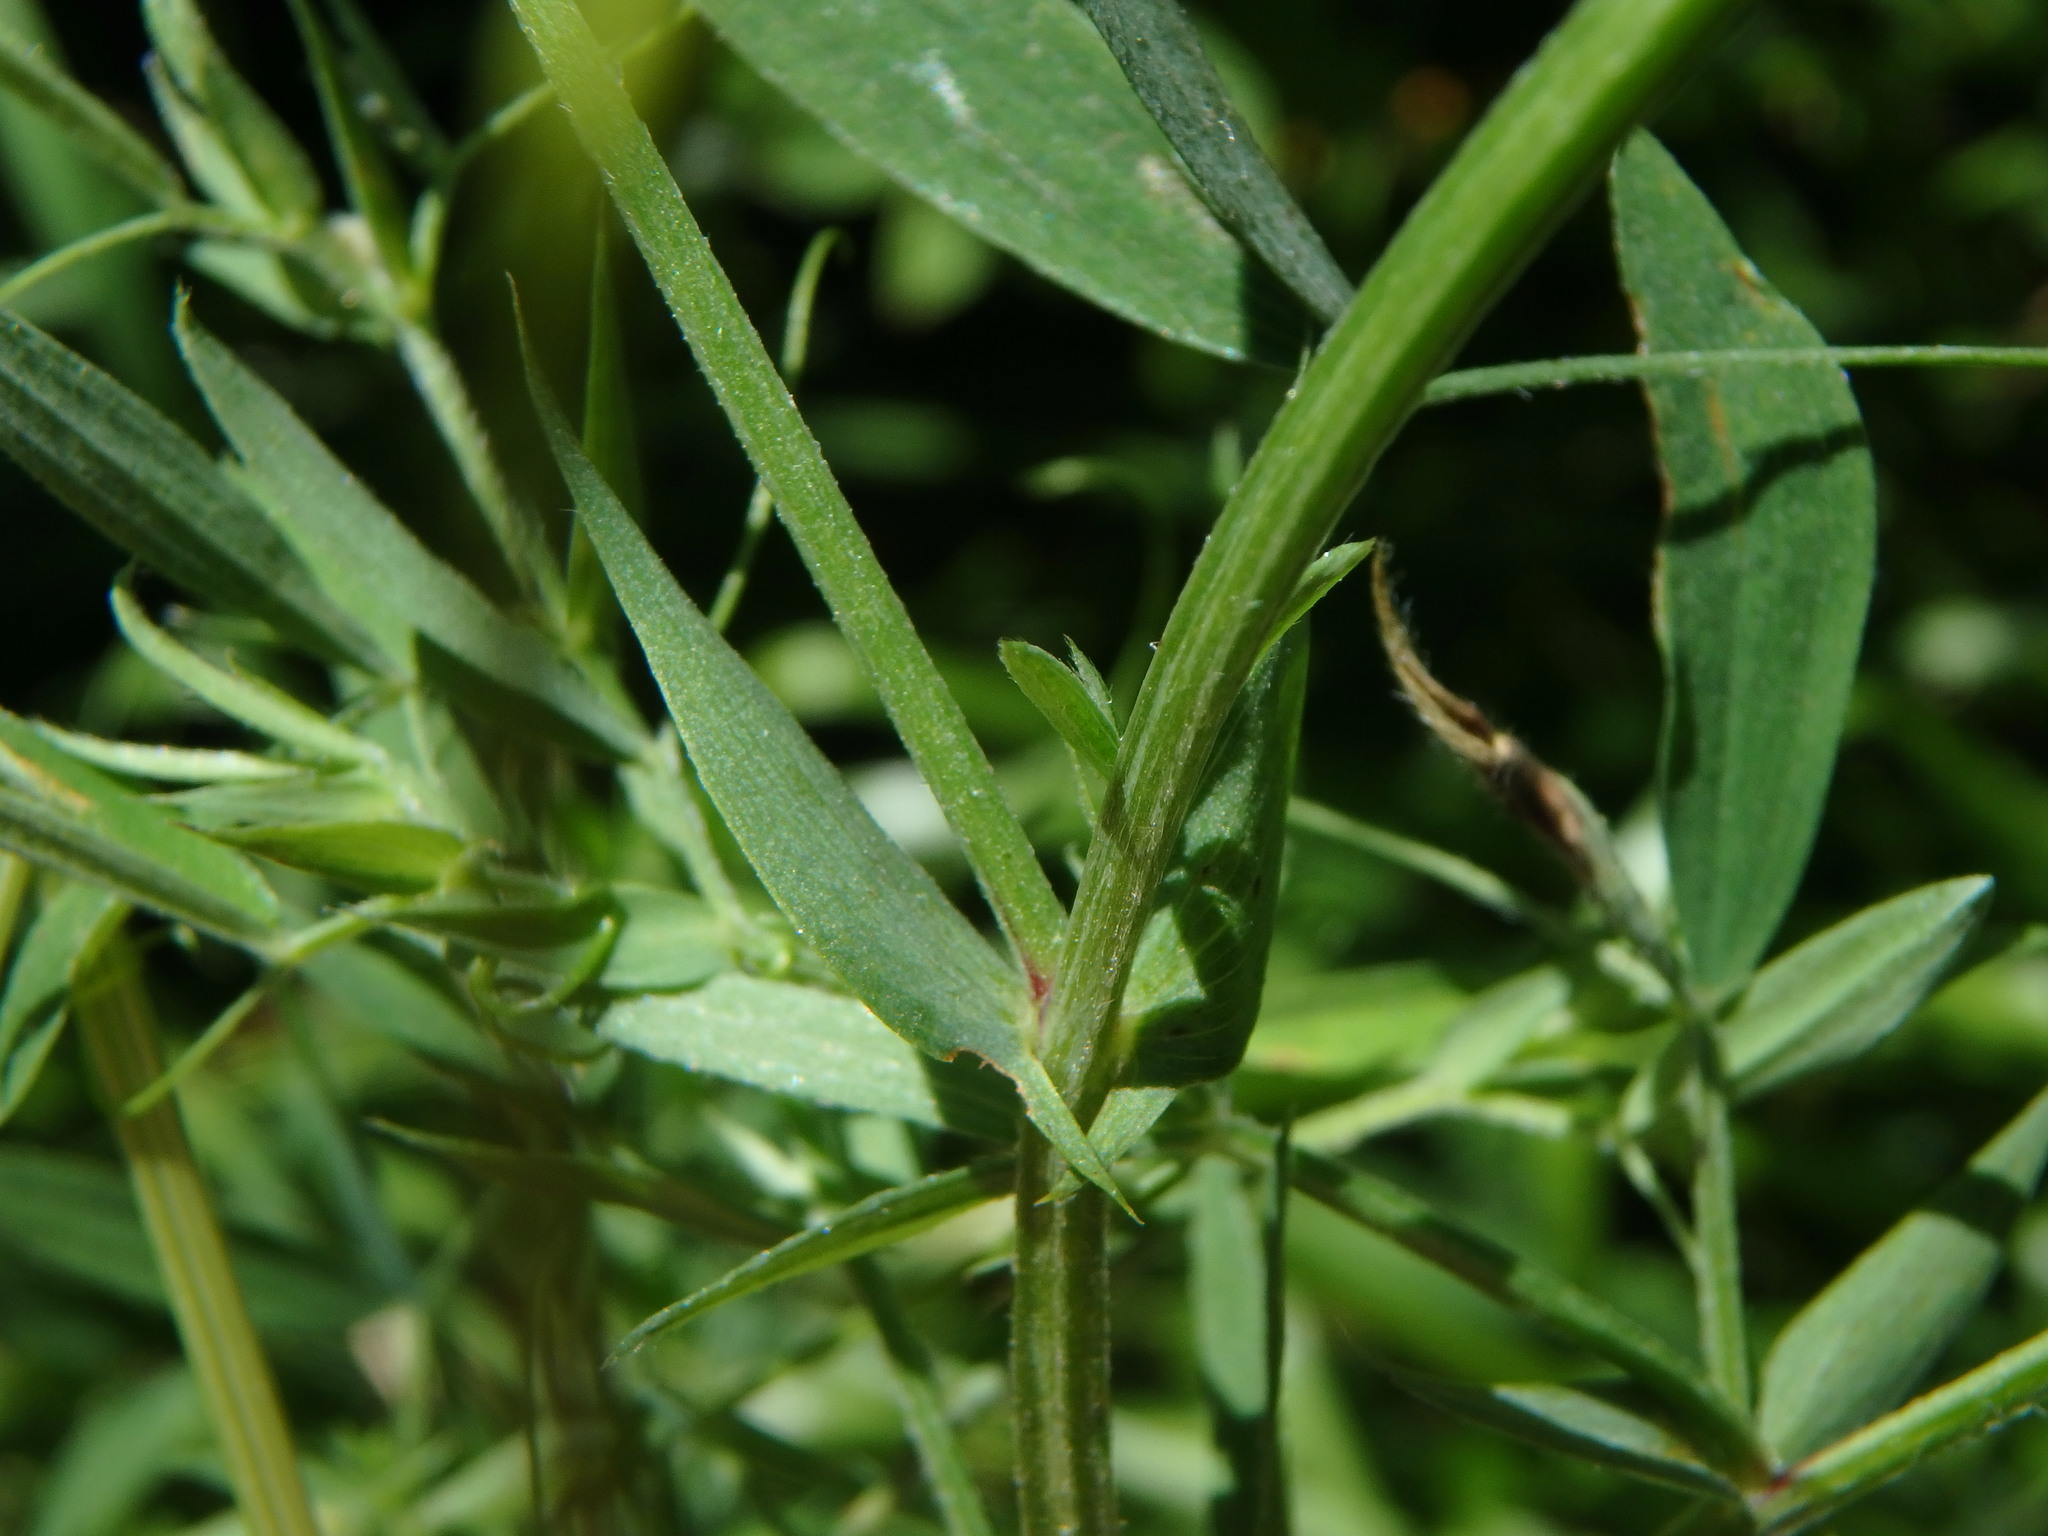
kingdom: Plantae
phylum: Tracheophyta
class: Magnoliopsida
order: Fabales
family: Fabaceae
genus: Lathyrus
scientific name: Lathyrus pratensis
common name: Meadow vetchling
